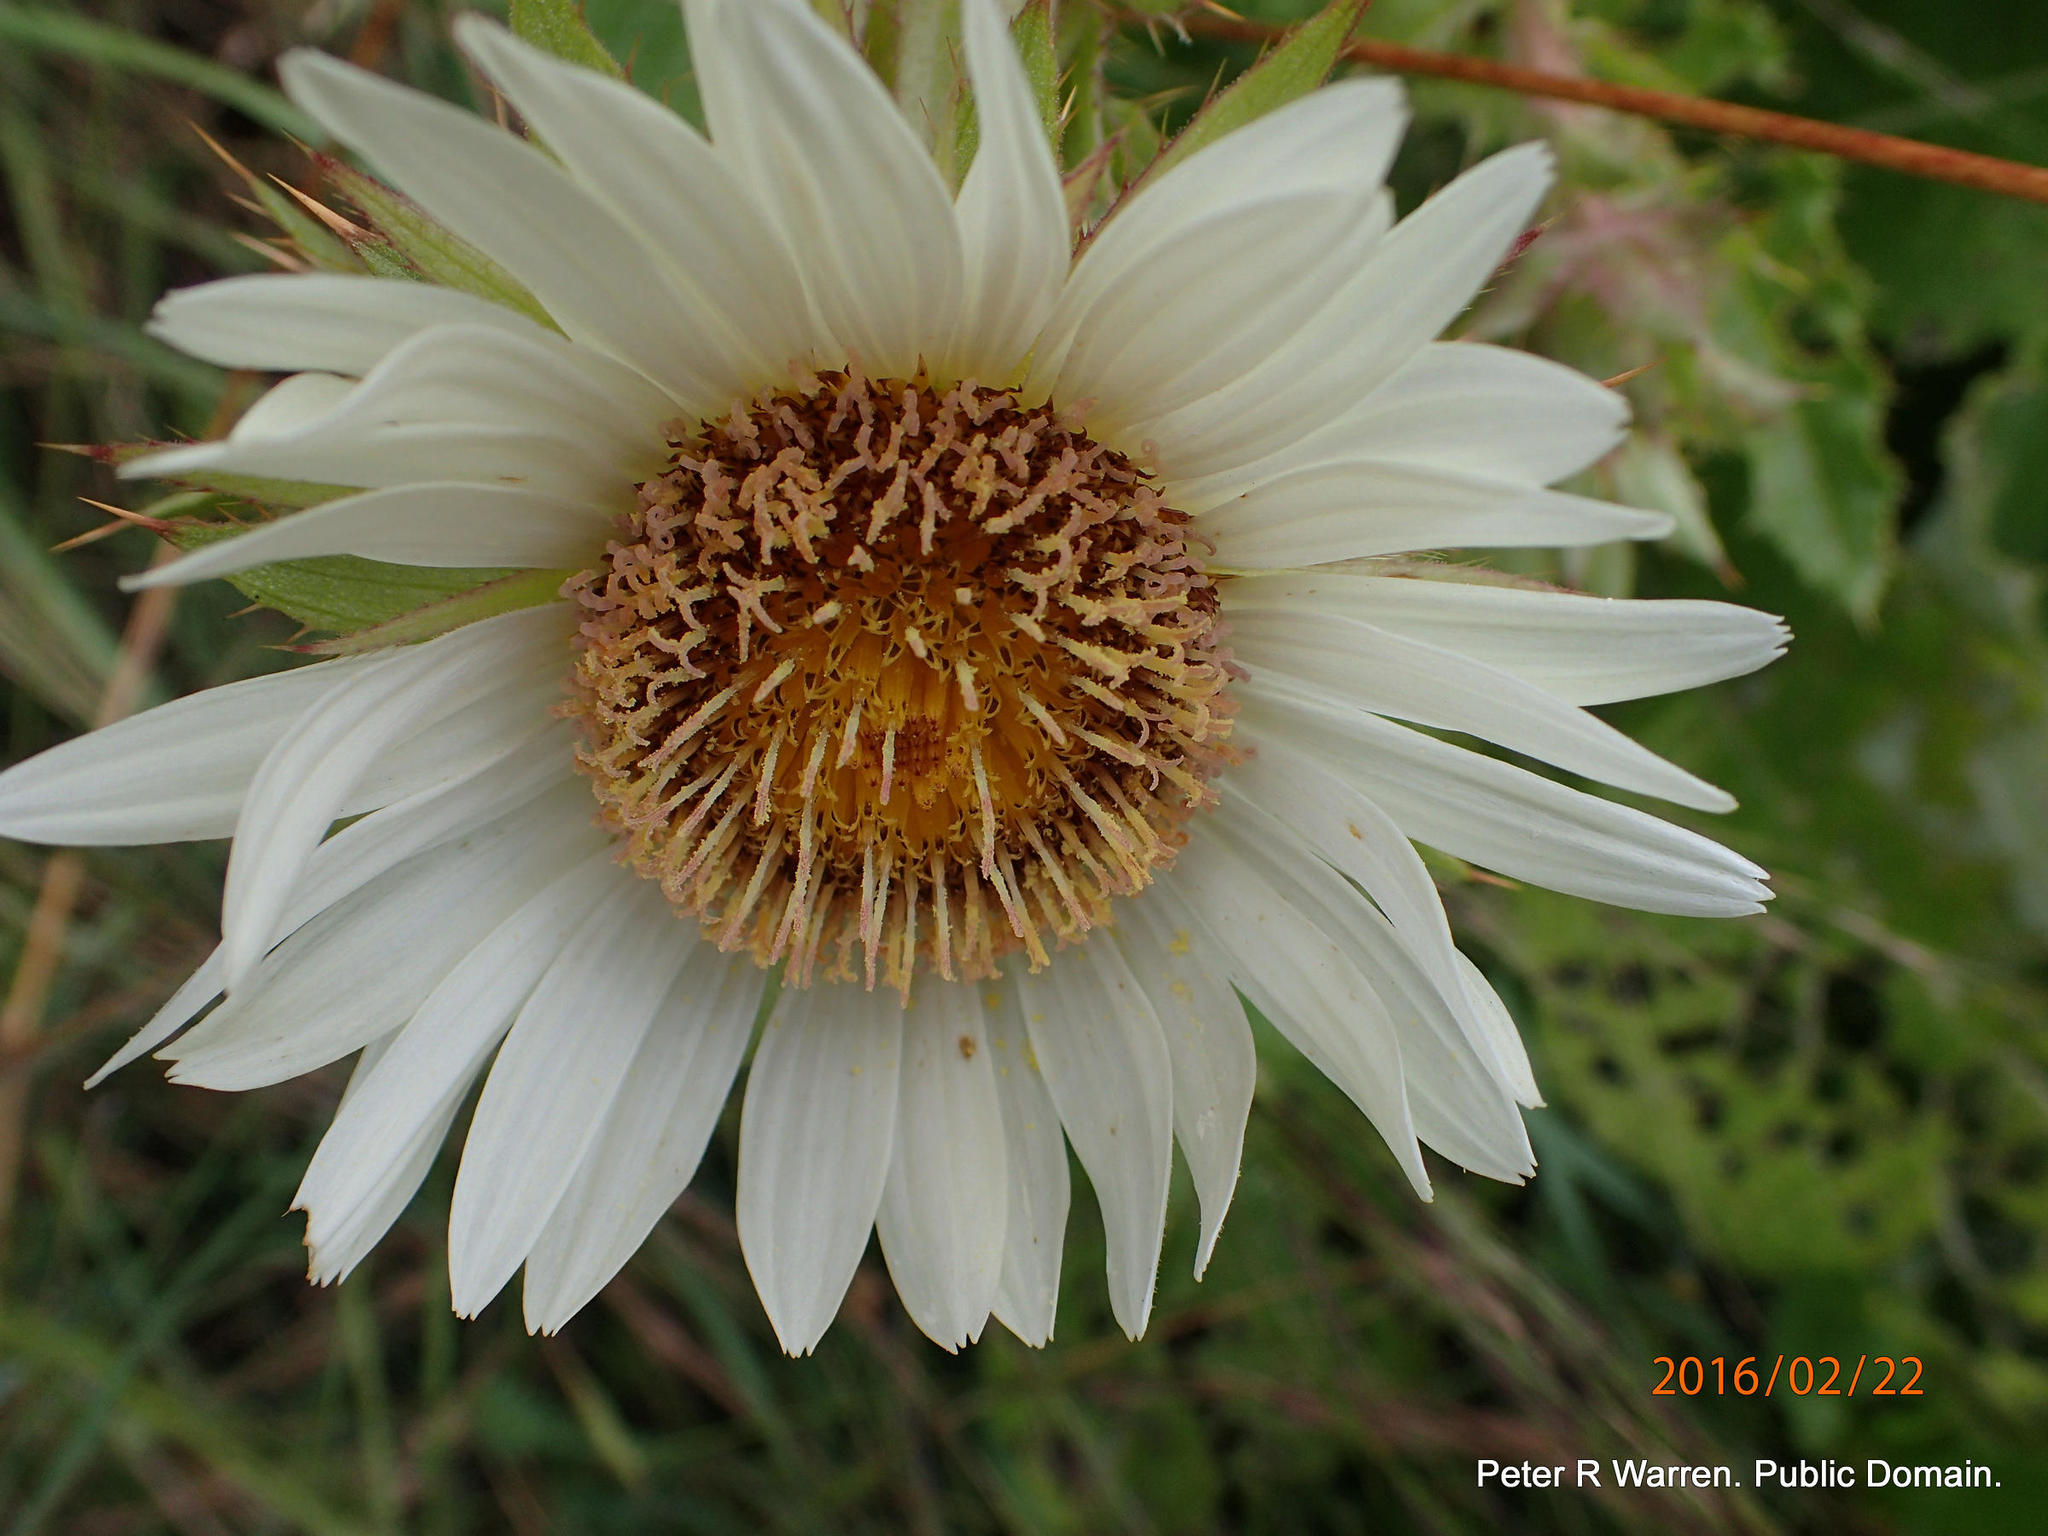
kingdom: Plantae
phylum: Tracheophyta
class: Magnoliopsida
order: Asterales
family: Asteraceae
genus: Berkheya
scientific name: Berkheya leucaugeta
